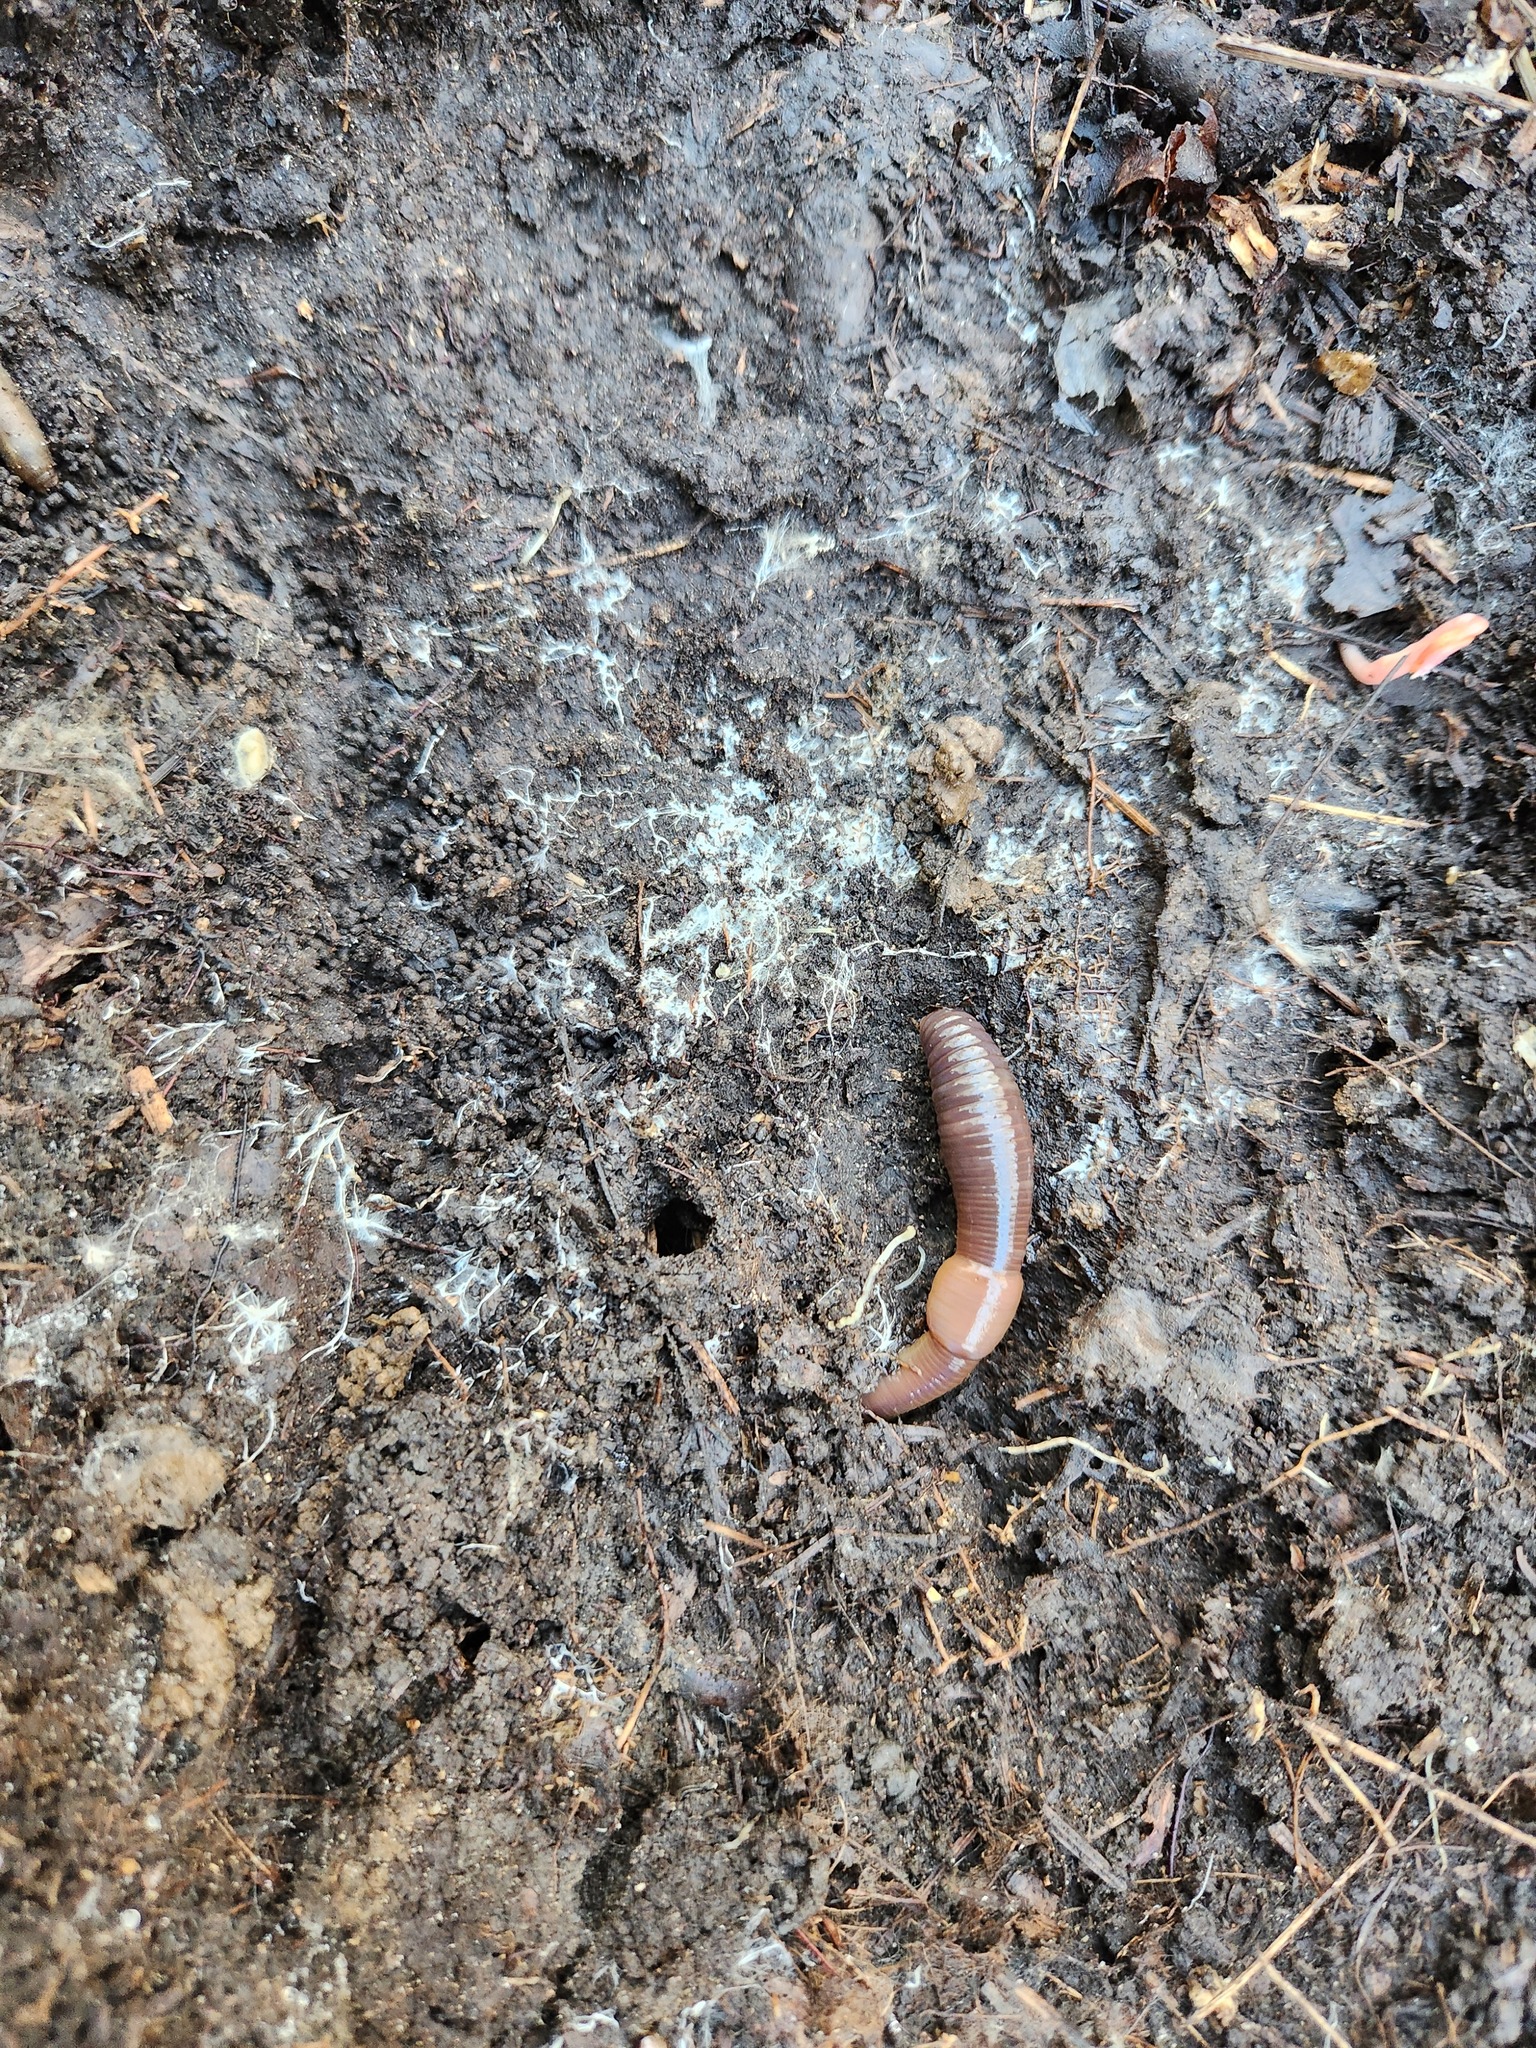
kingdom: Animalia
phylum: Annelida
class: Clitellata
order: Crassiclitellata
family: Lumbricidae
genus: Lumbricus
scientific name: Lumbricus terrestris
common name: Common earthworm
